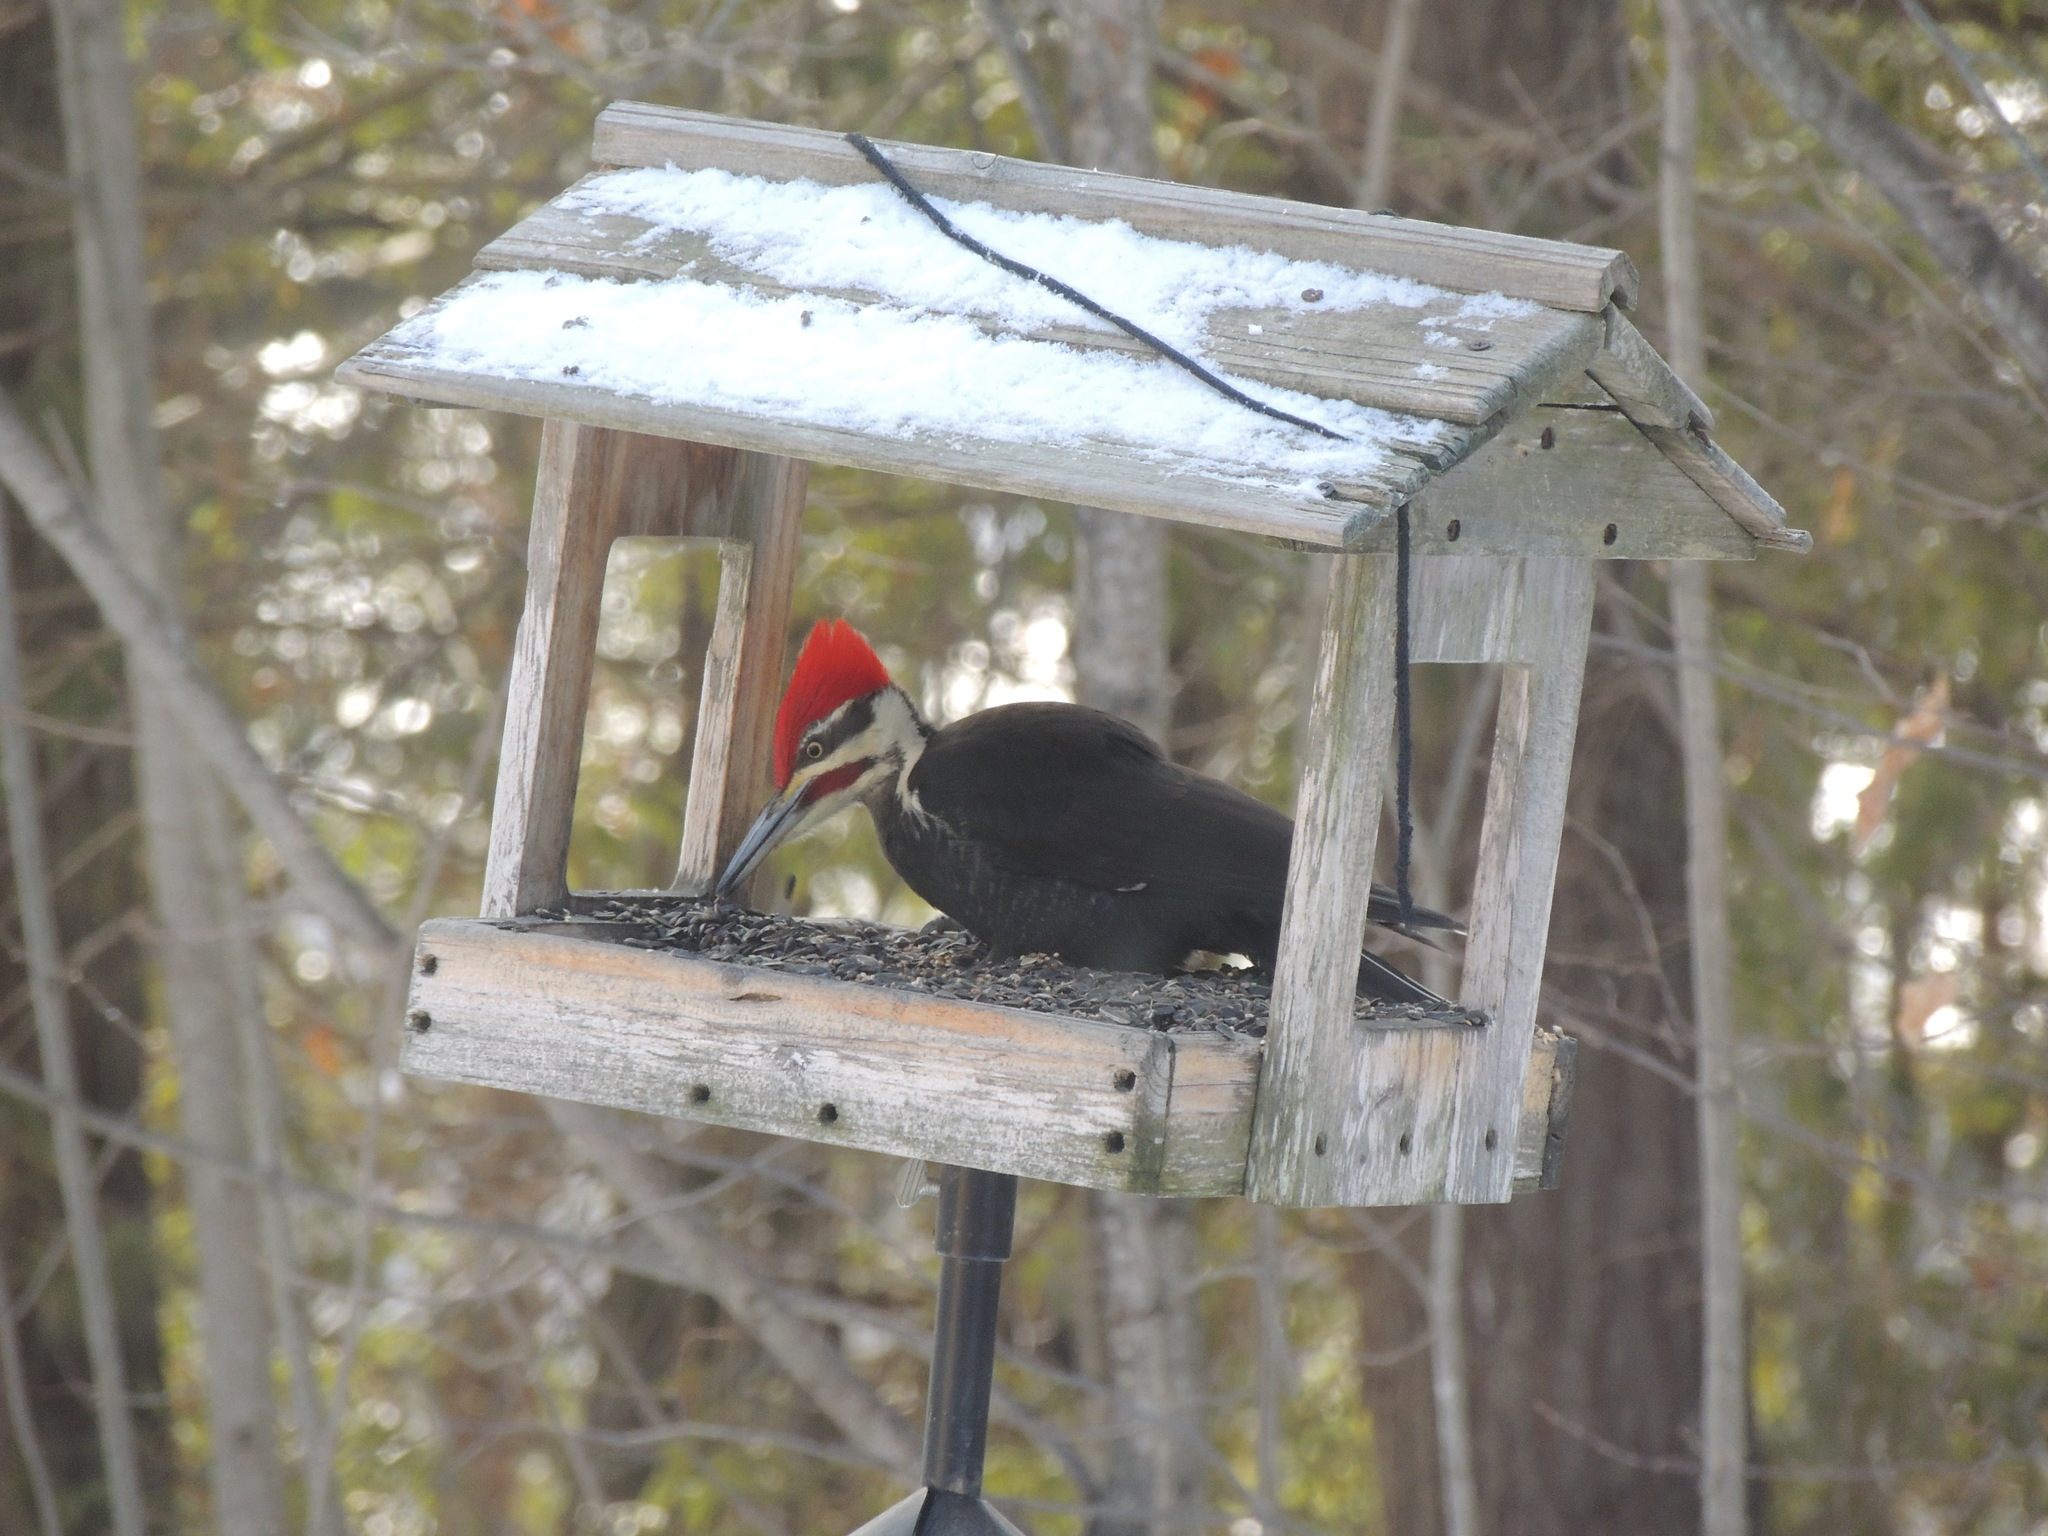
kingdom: Animalia
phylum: Chordata
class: Aves
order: Piciformes
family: Picidae
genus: Dryocopus
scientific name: Dryocopus pileatus
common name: Pileated woodpecker
